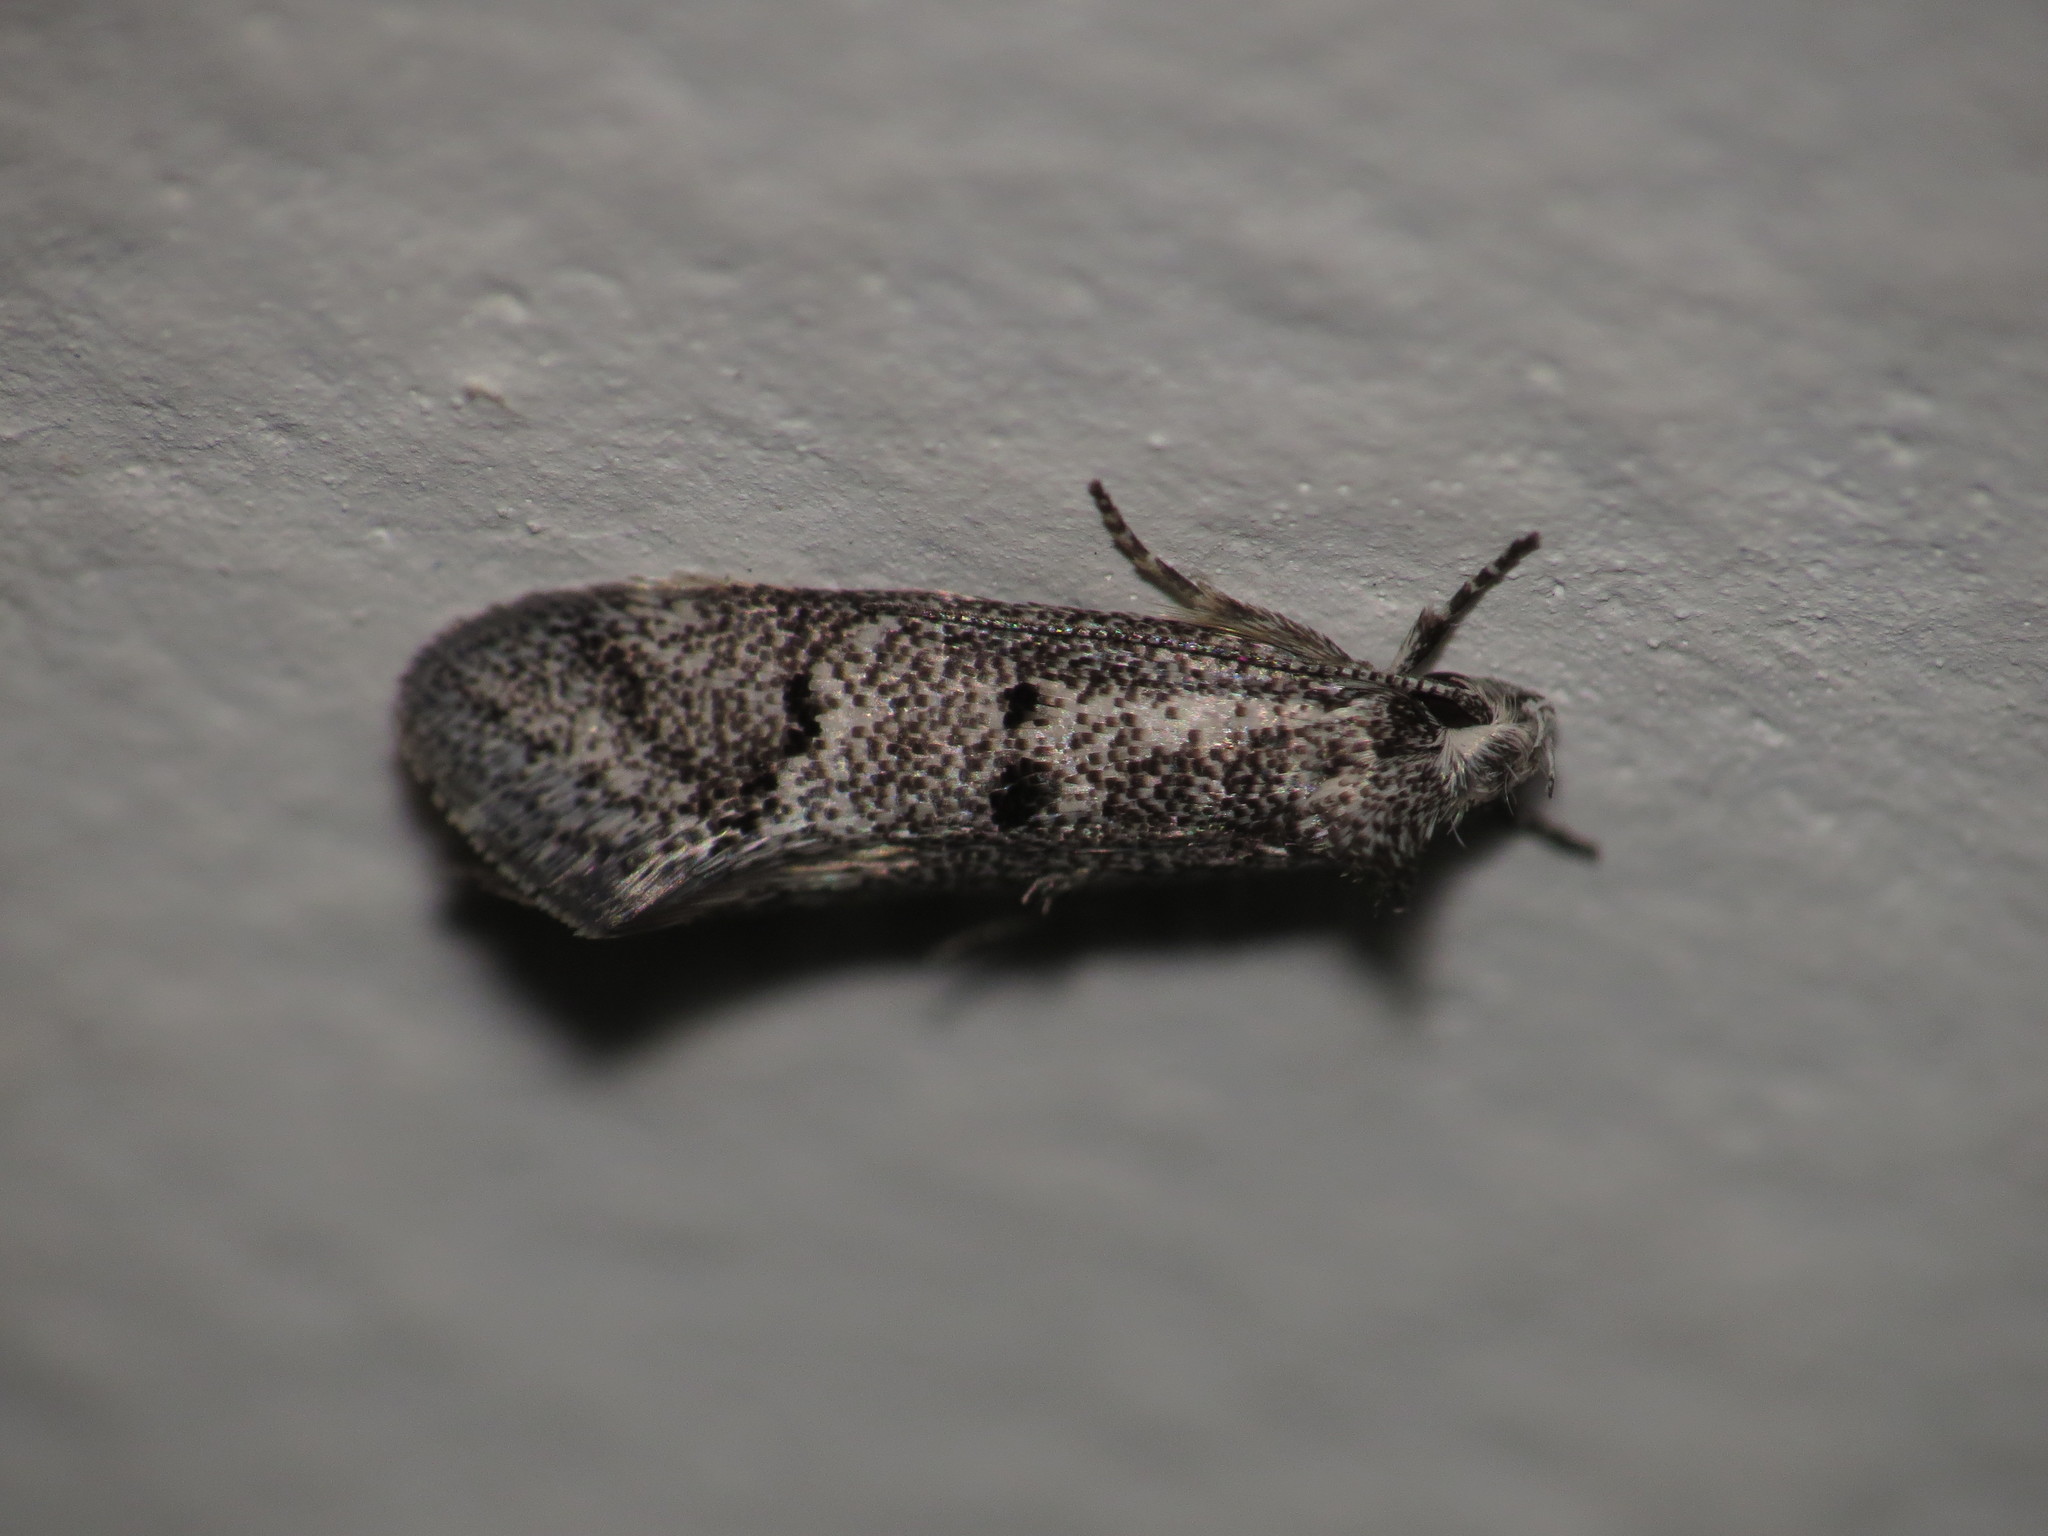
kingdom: Animalia
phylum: Arthropoda
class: Insecta
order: Lepidoptera
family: Oecophoridae
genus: Heterozyga
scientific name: Heterozyga coppatias
